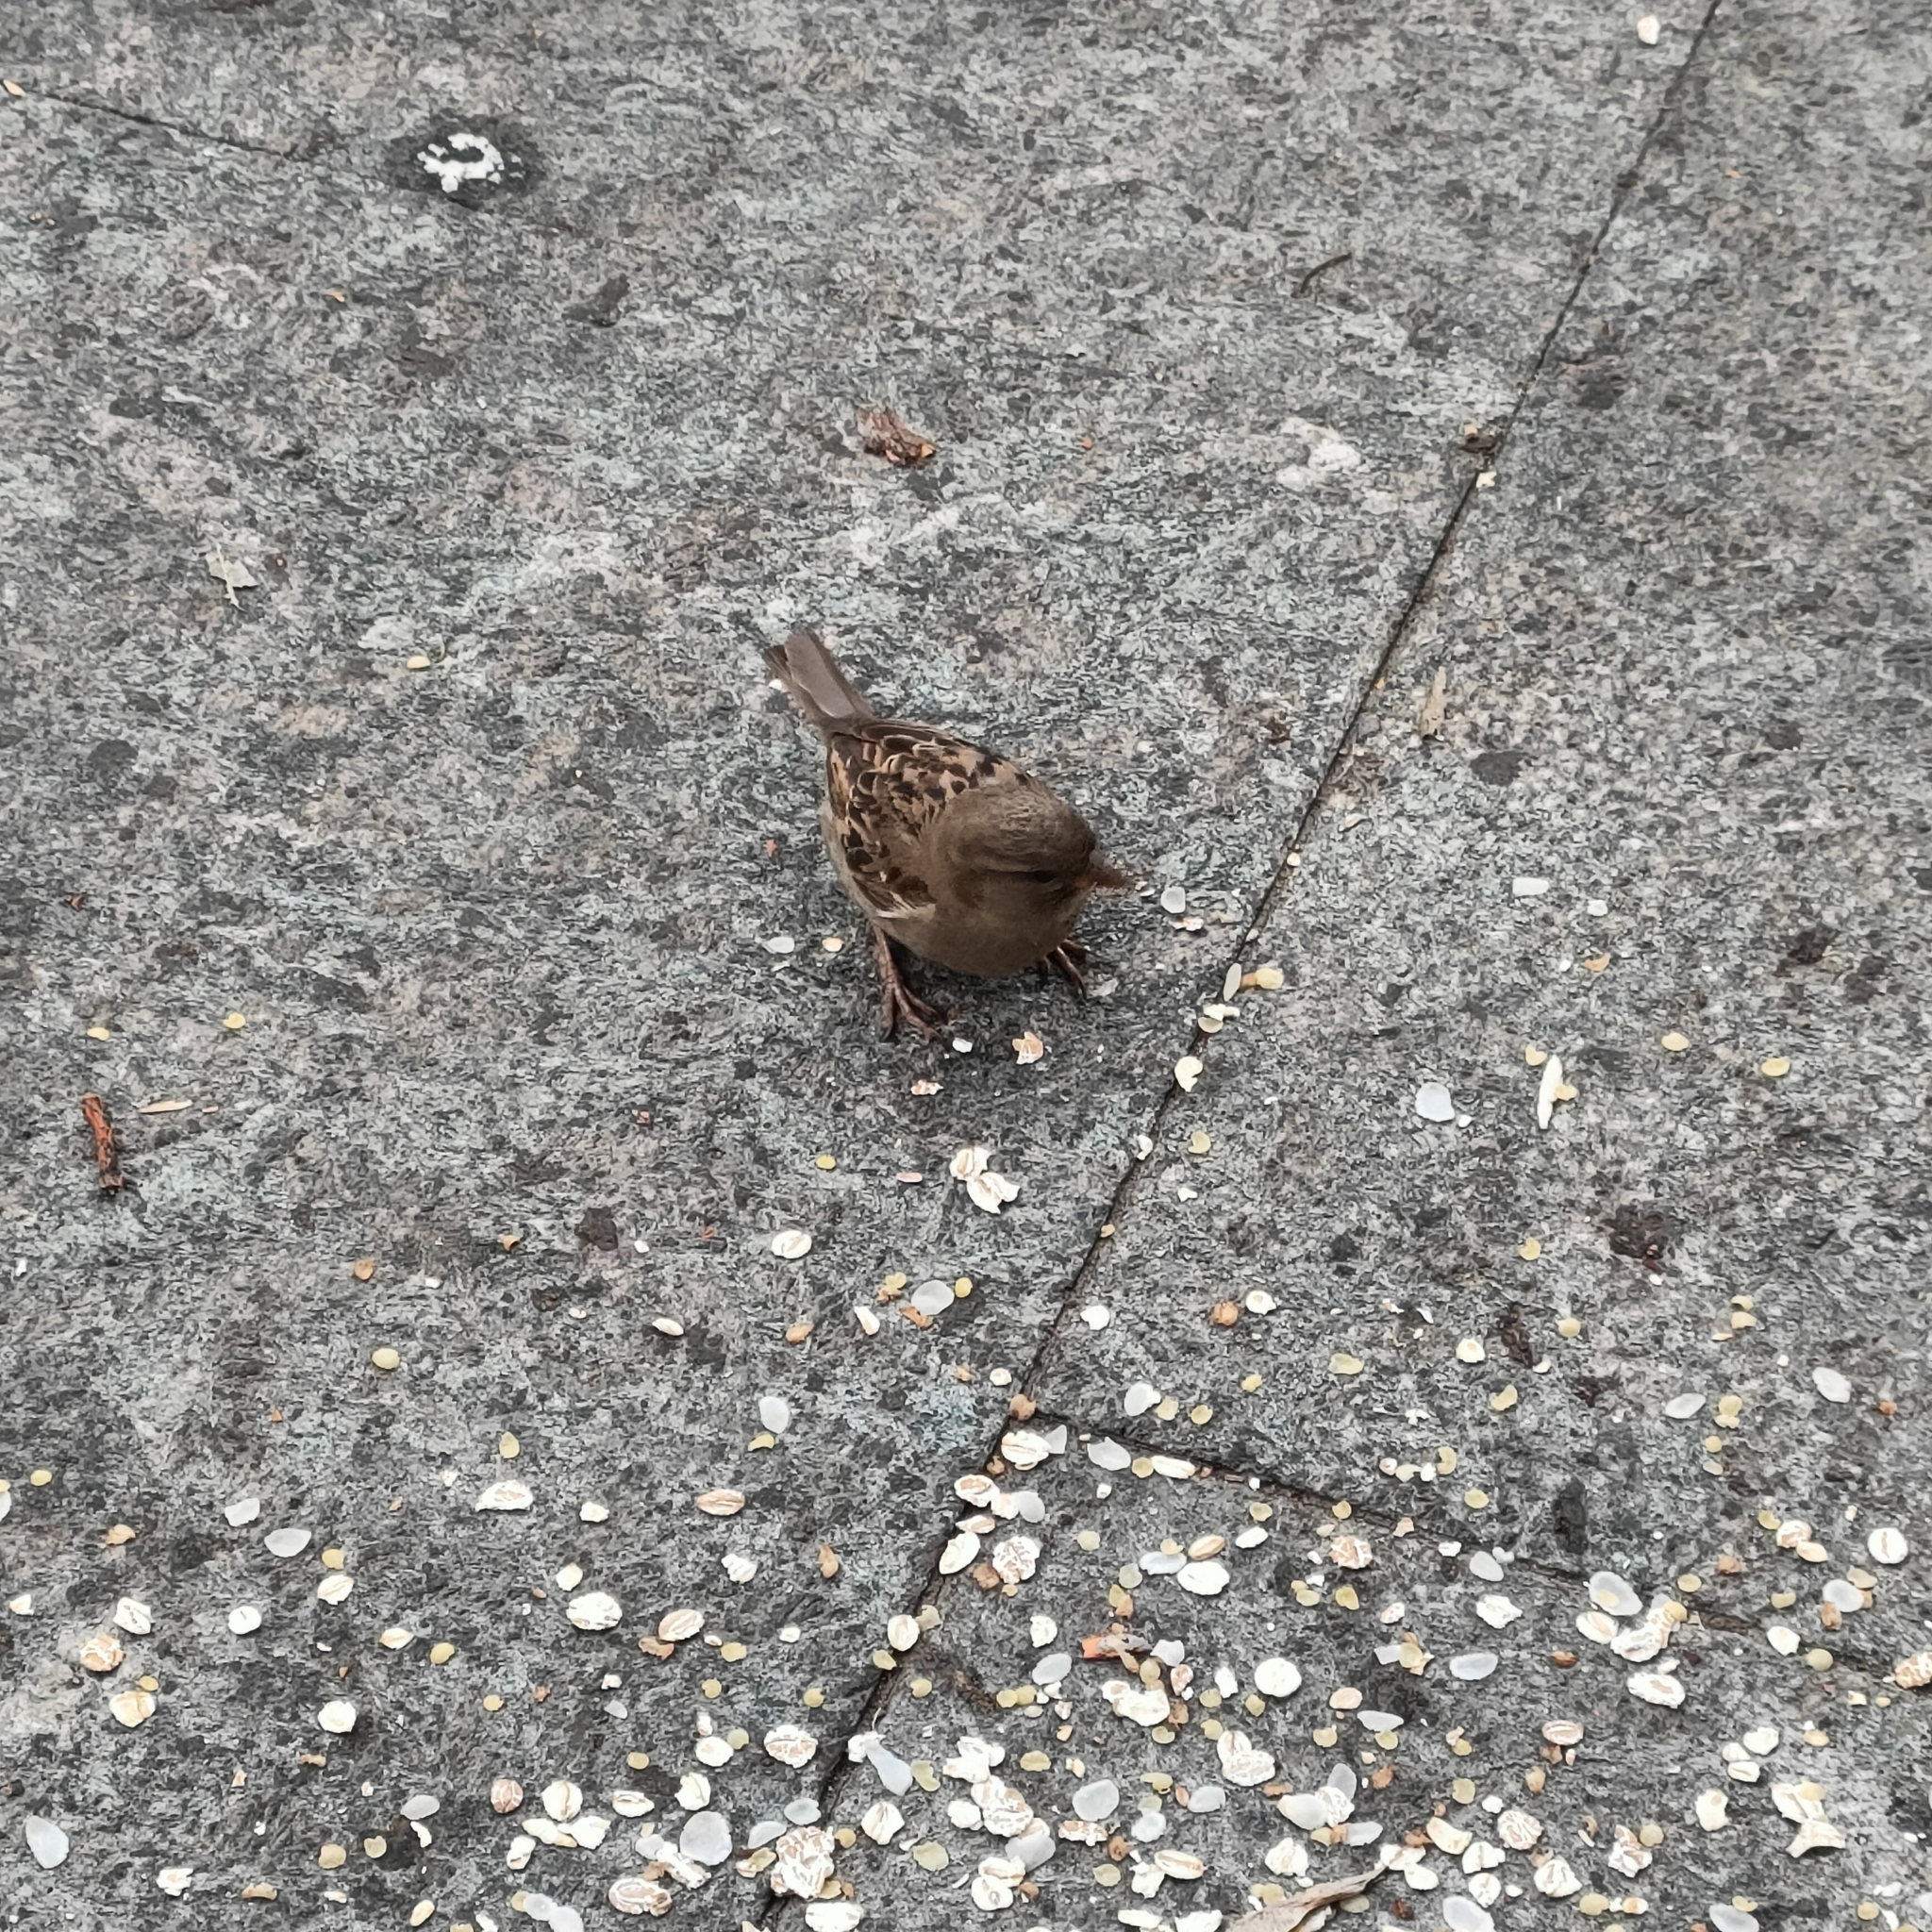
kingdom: Animalia
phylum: Chordata
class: Aves
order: Passeriformes
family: Passeridae
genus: Passer
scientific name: Passer domesticus
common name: House sparrow
